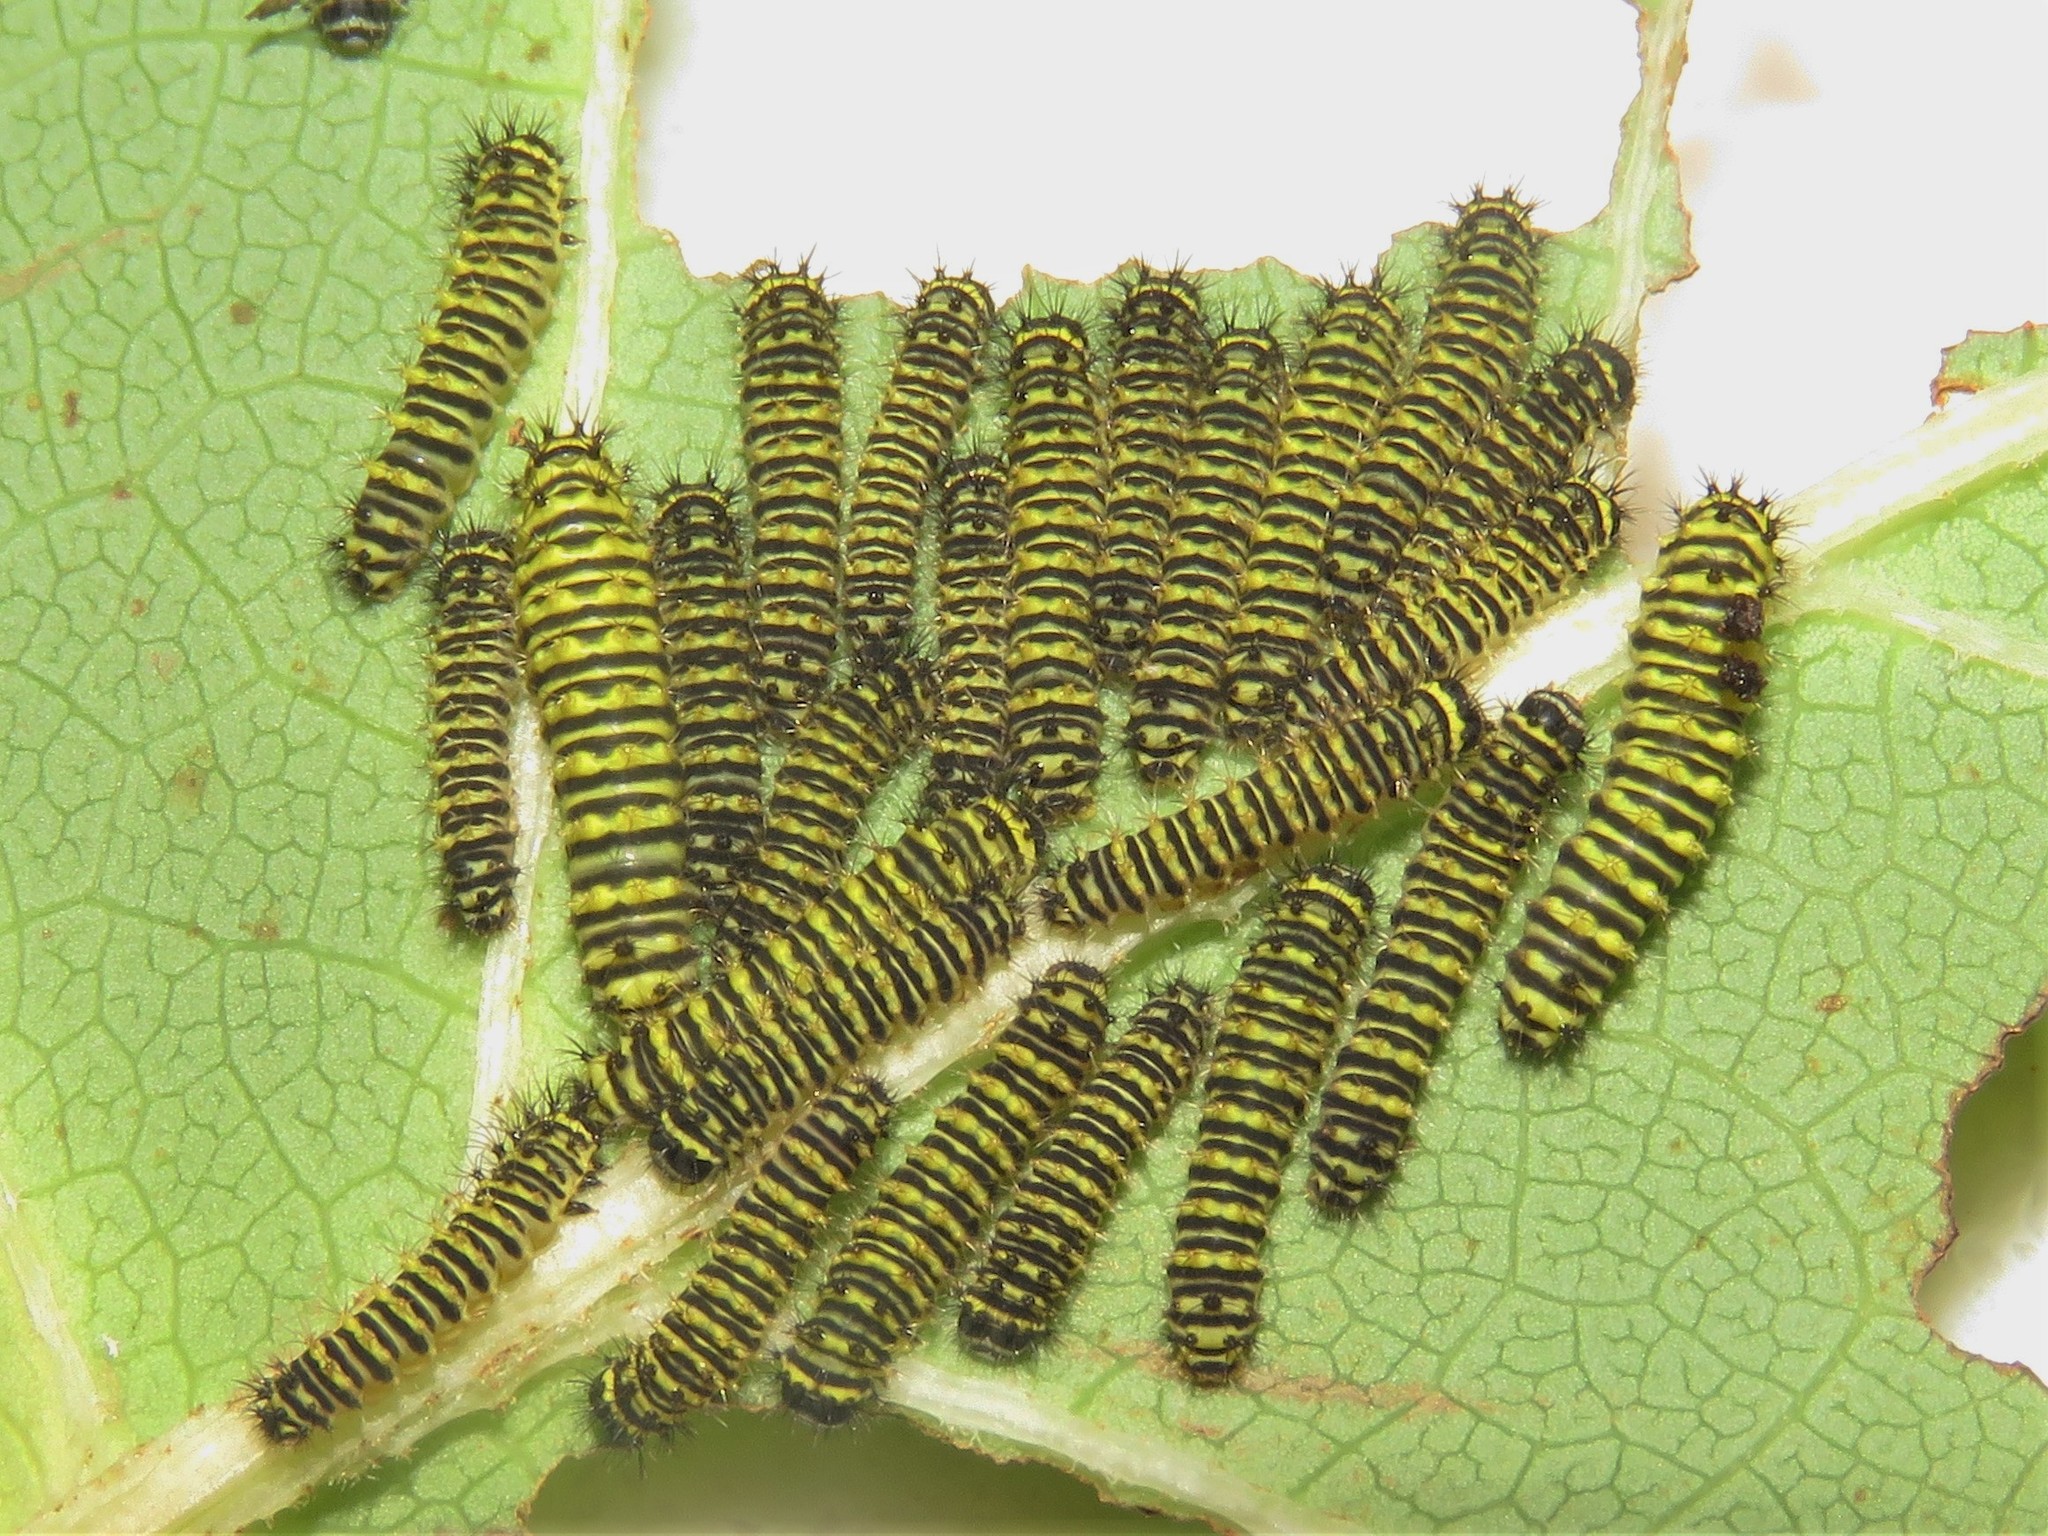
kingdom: Animalia
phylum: Arthropoda
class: Insecta
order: Lepidoptera
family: Saturniidae
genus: Callosamia
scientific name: Callosamia promethea
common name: Promethea silkmoth
